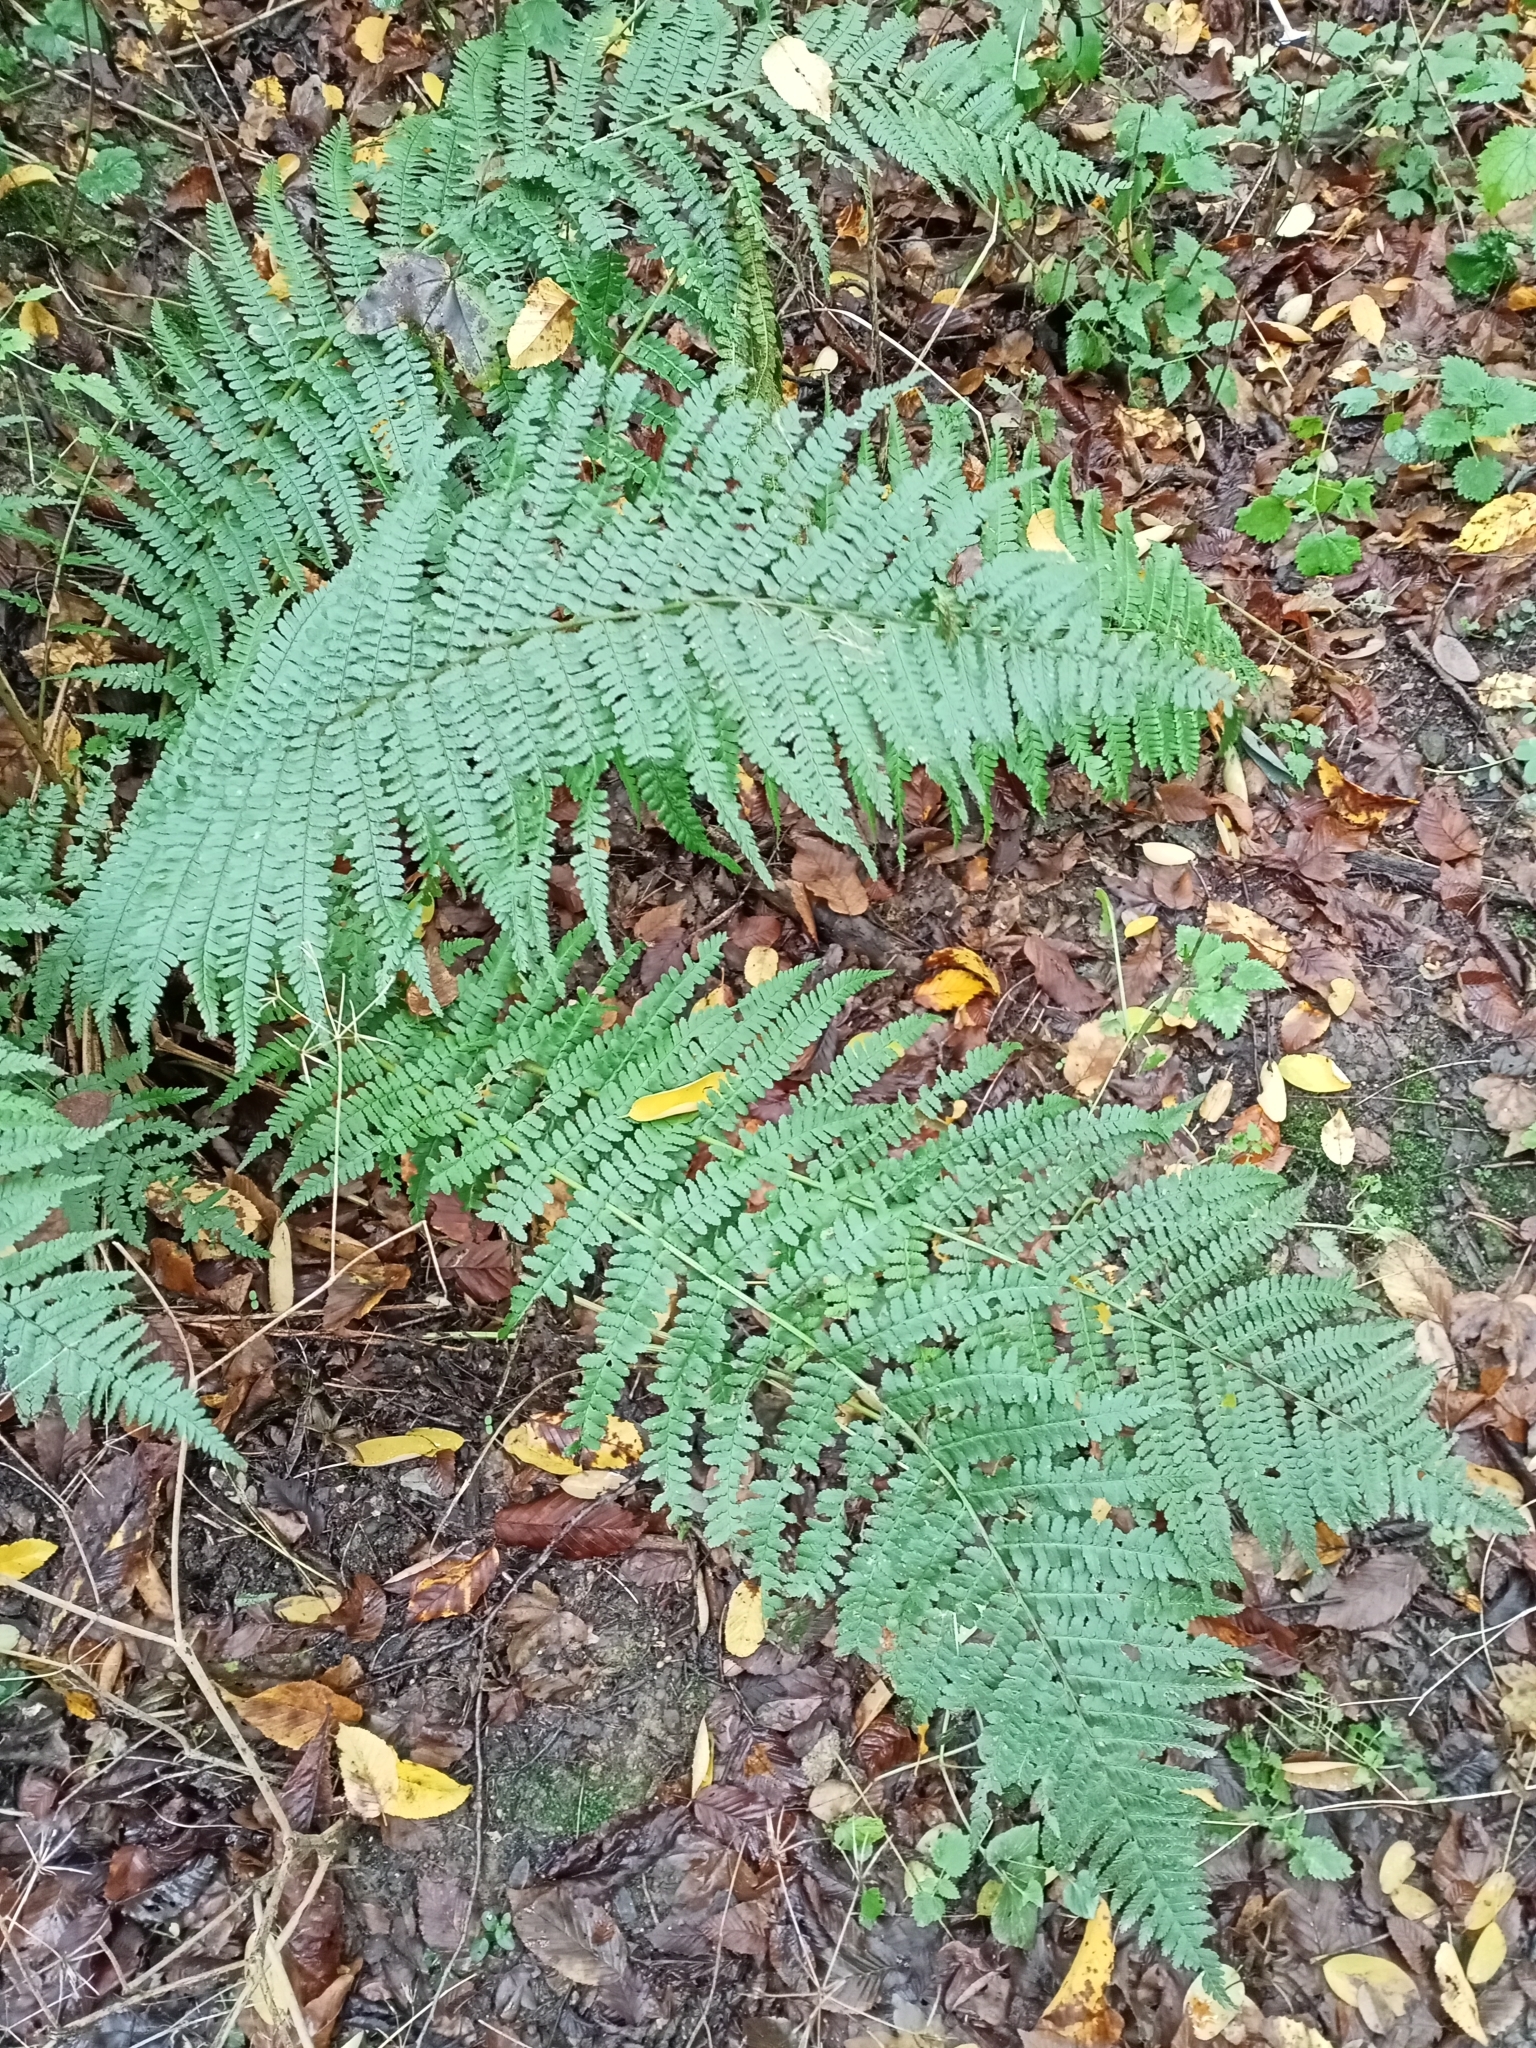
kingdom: Plantae
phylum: Tracheophyta
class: Polypodiopsida
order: Polypodiales
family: Dryopteridaceae
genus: Dryopteris
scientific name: Dryopteris filix-mas
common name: Male fern
